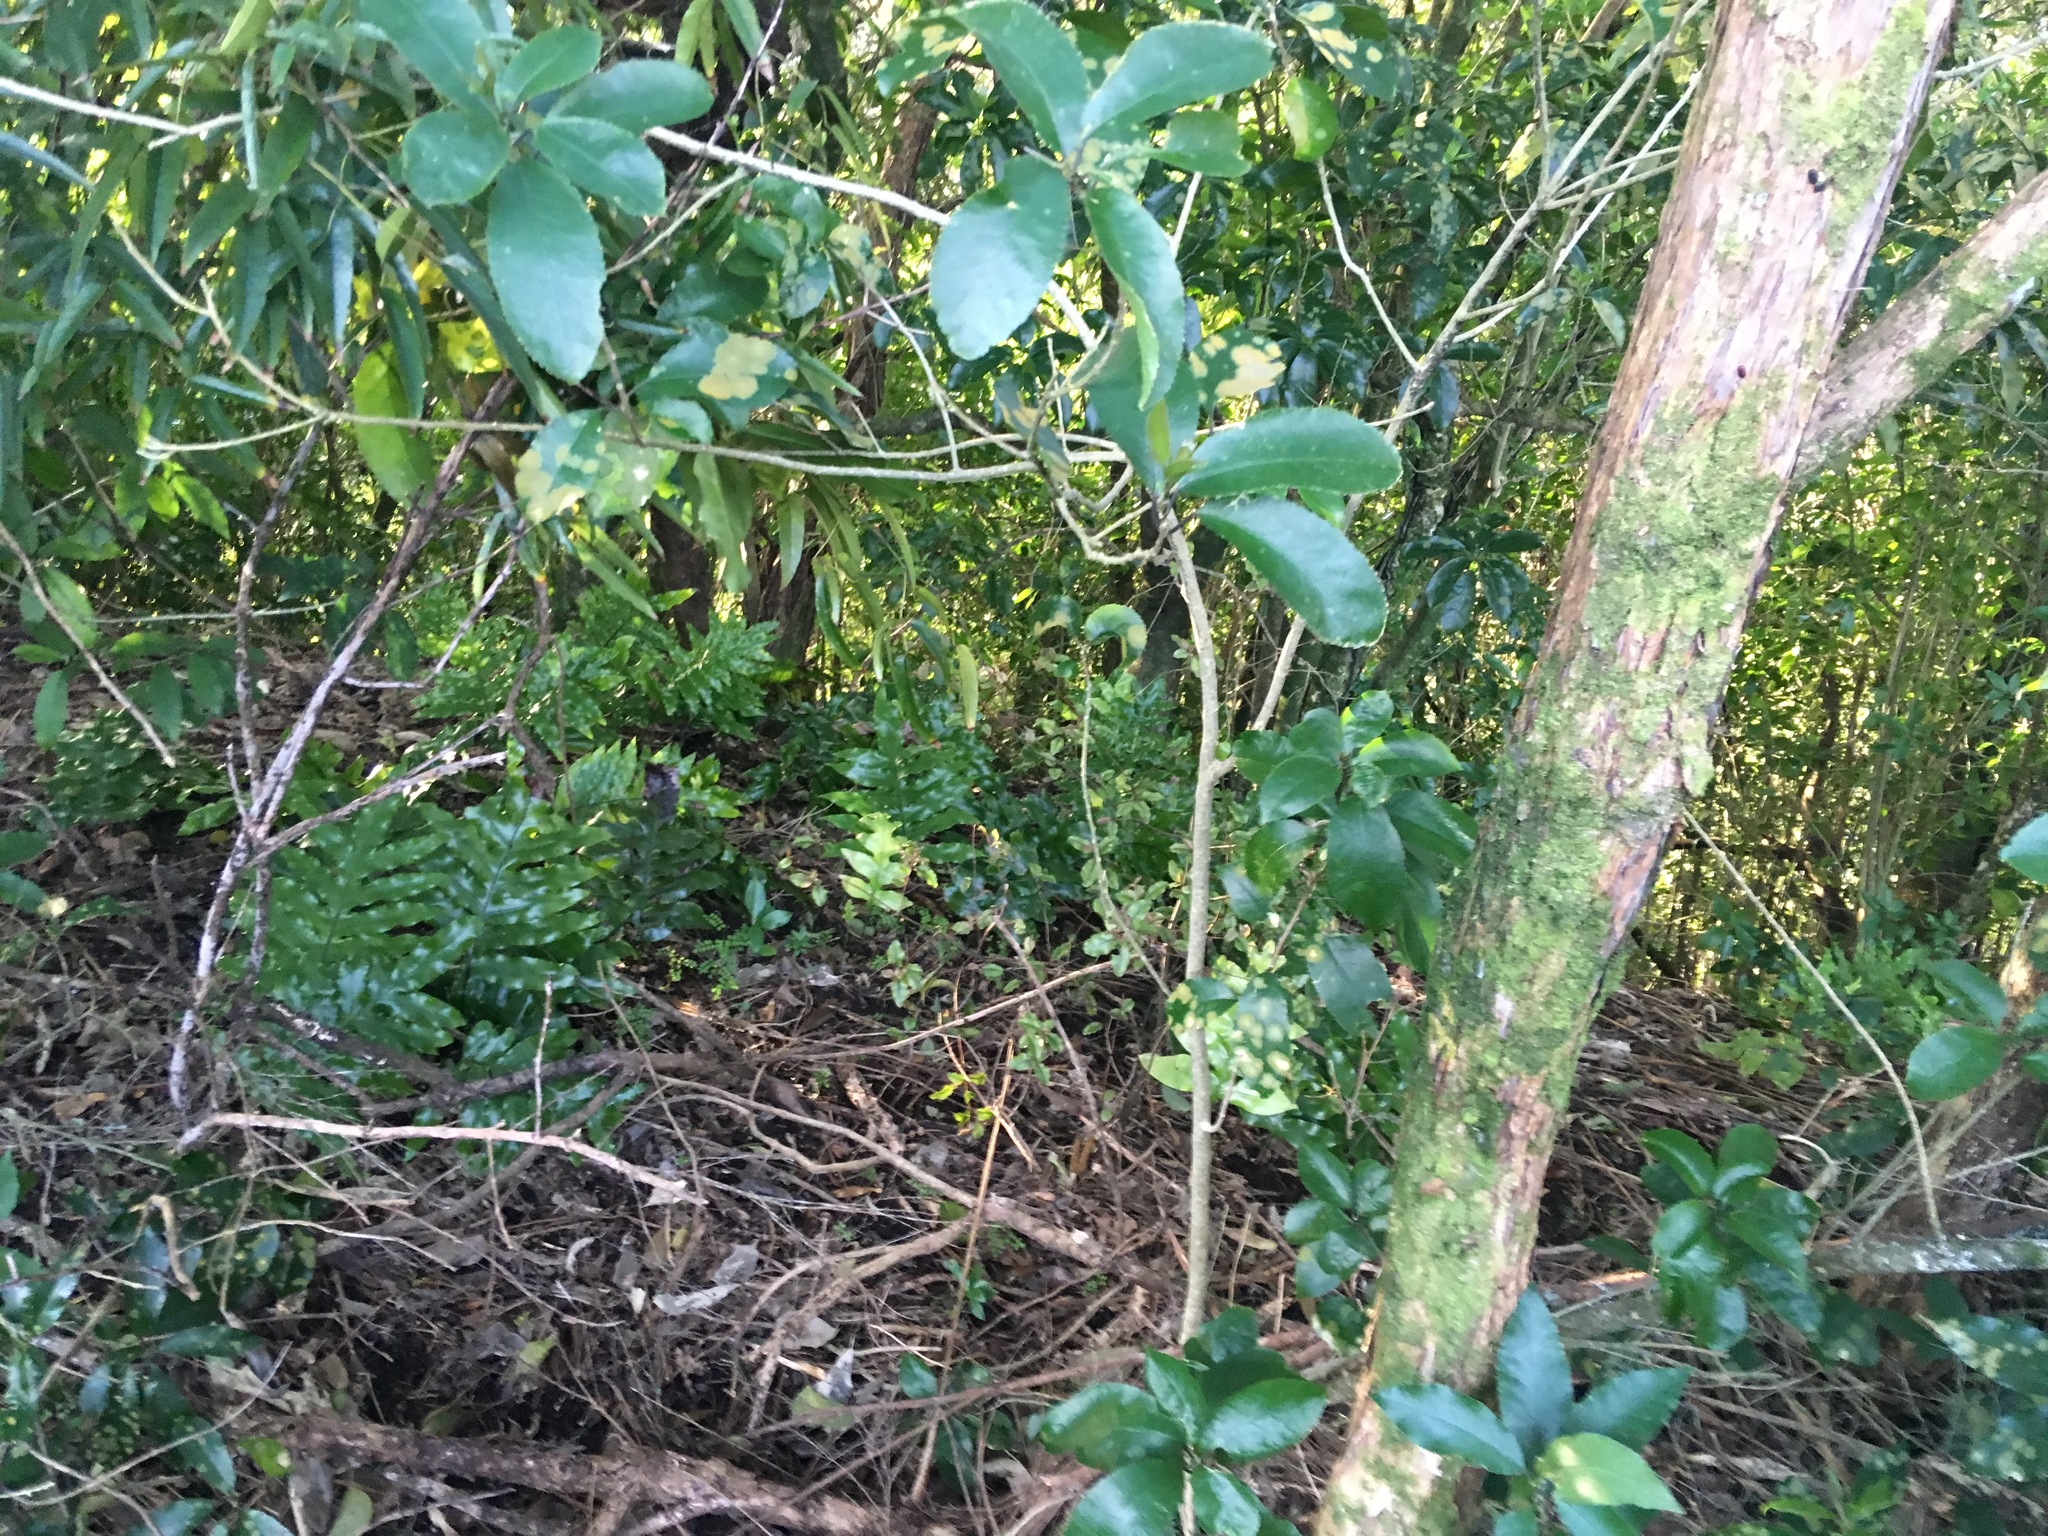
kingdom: Plantae
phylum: Tracheophyta
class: Polypodiopsida
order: Polypodiales
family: Polypodiaceae
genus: Lecanopteris
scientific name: Lecanopteris pustulata
